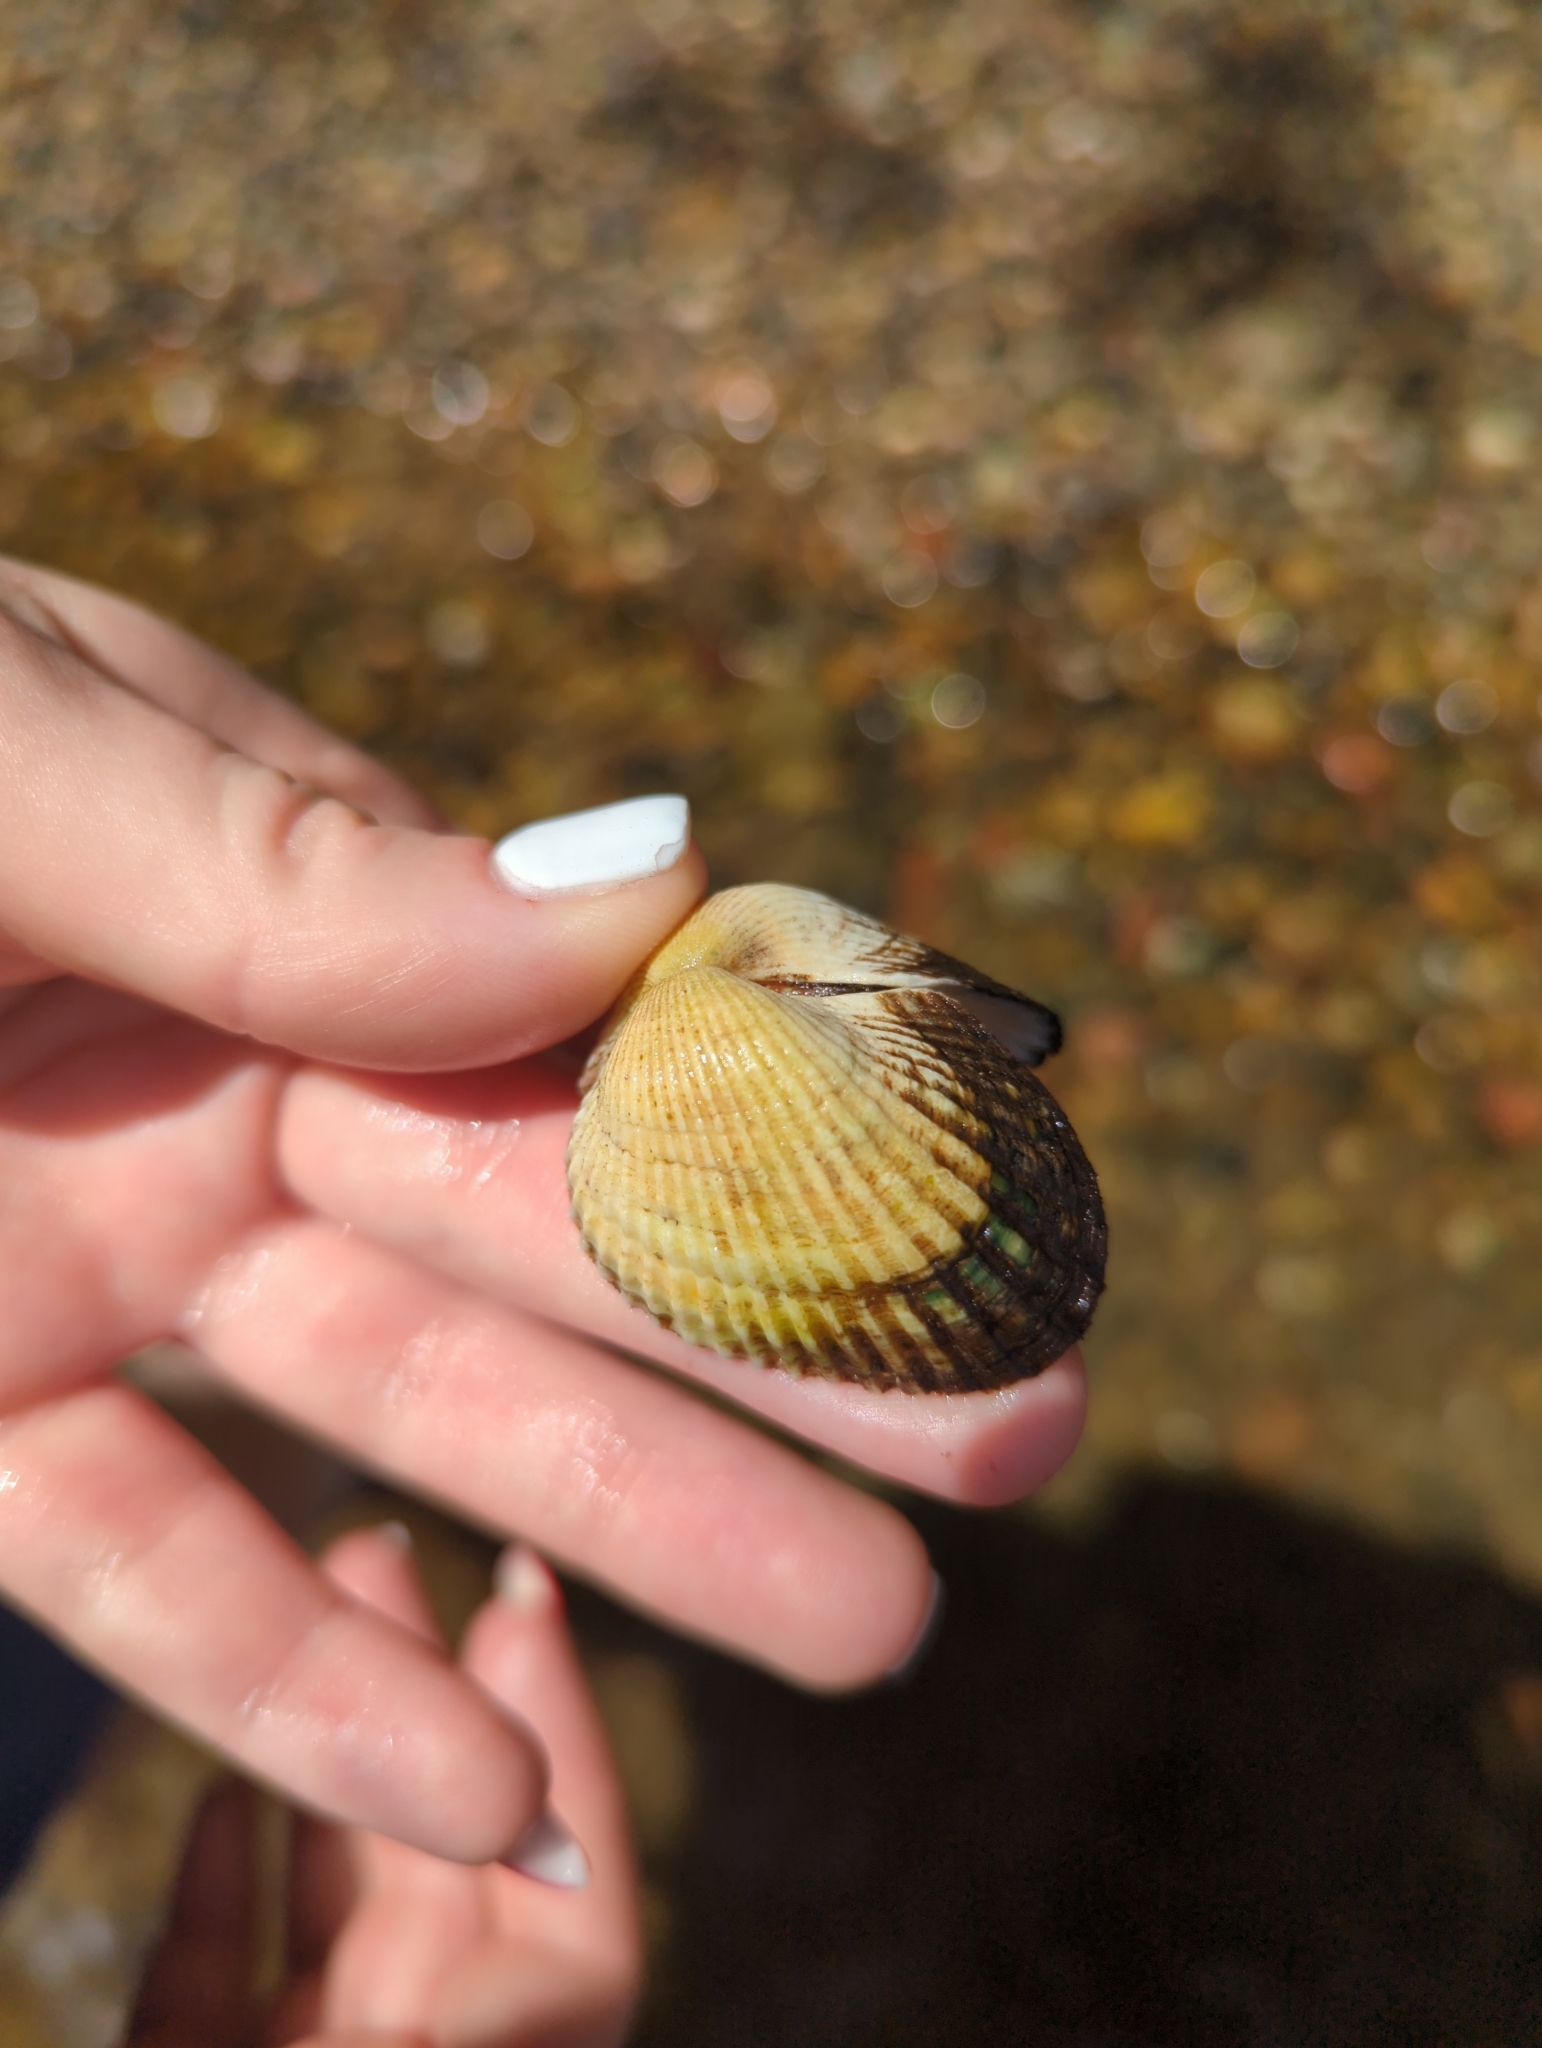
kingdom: Animalia
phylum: Mollusca
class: Bivalvia
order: Arcida
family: Arcidae
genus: Anadara
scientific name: Anadara trapezia
